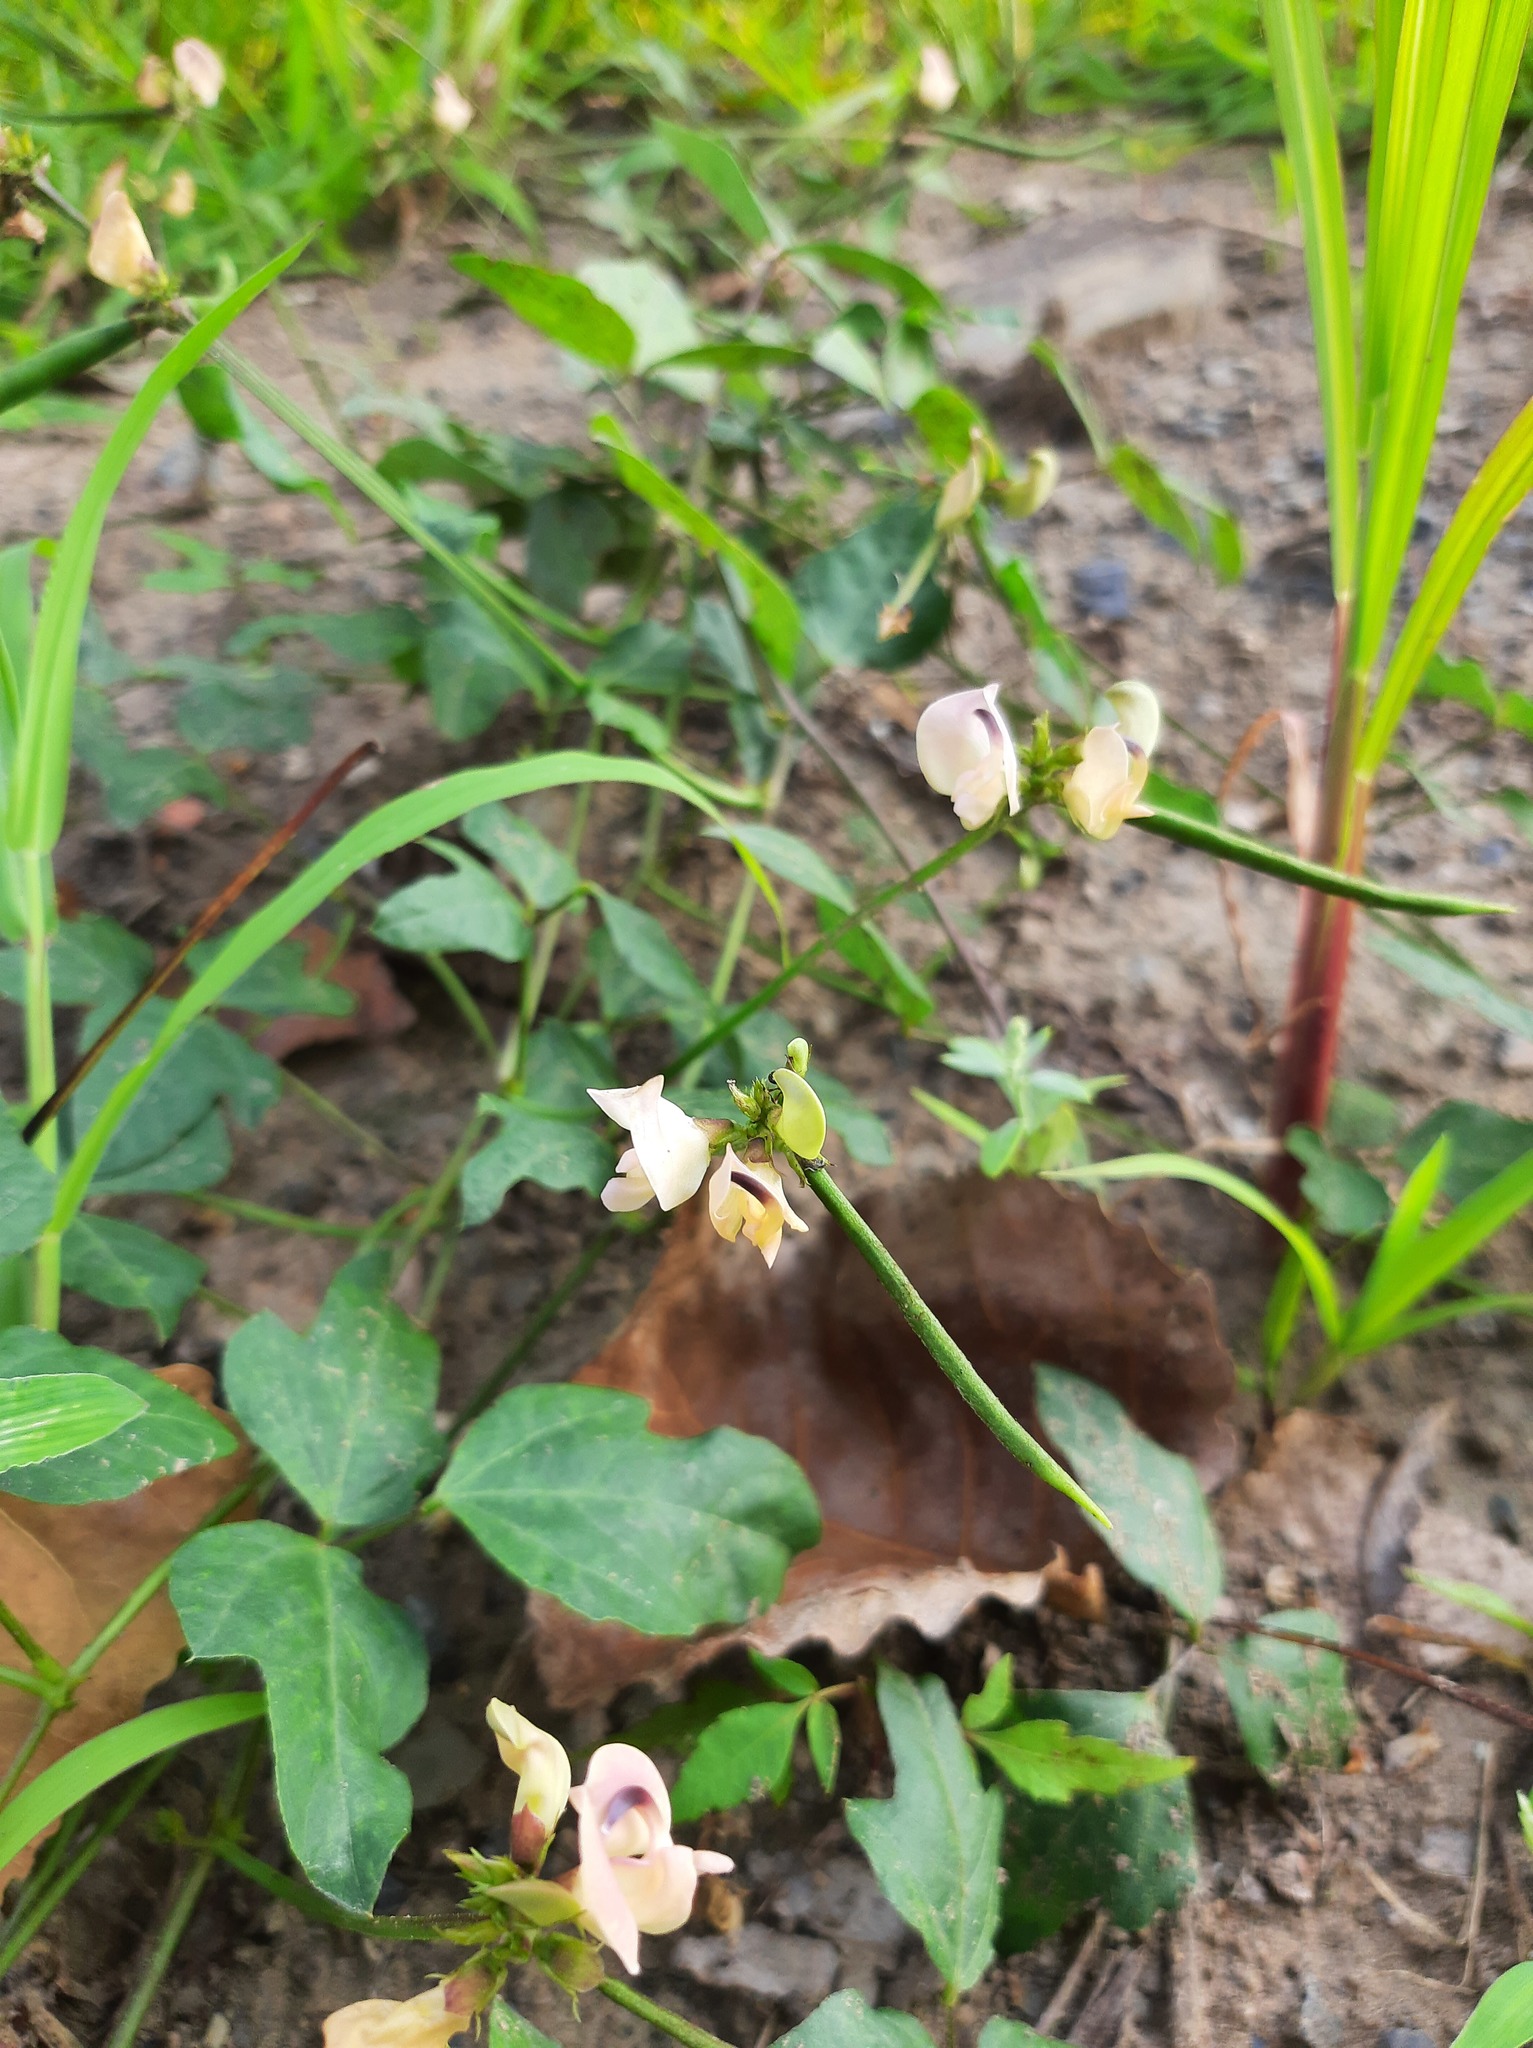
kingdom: Plantae
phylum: Tracheophyta
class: Magnoliopsida
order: Fabales
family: Fabaceae
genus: Strophostyles
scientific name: Strophostyles helvola
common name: Trailing wild bean
